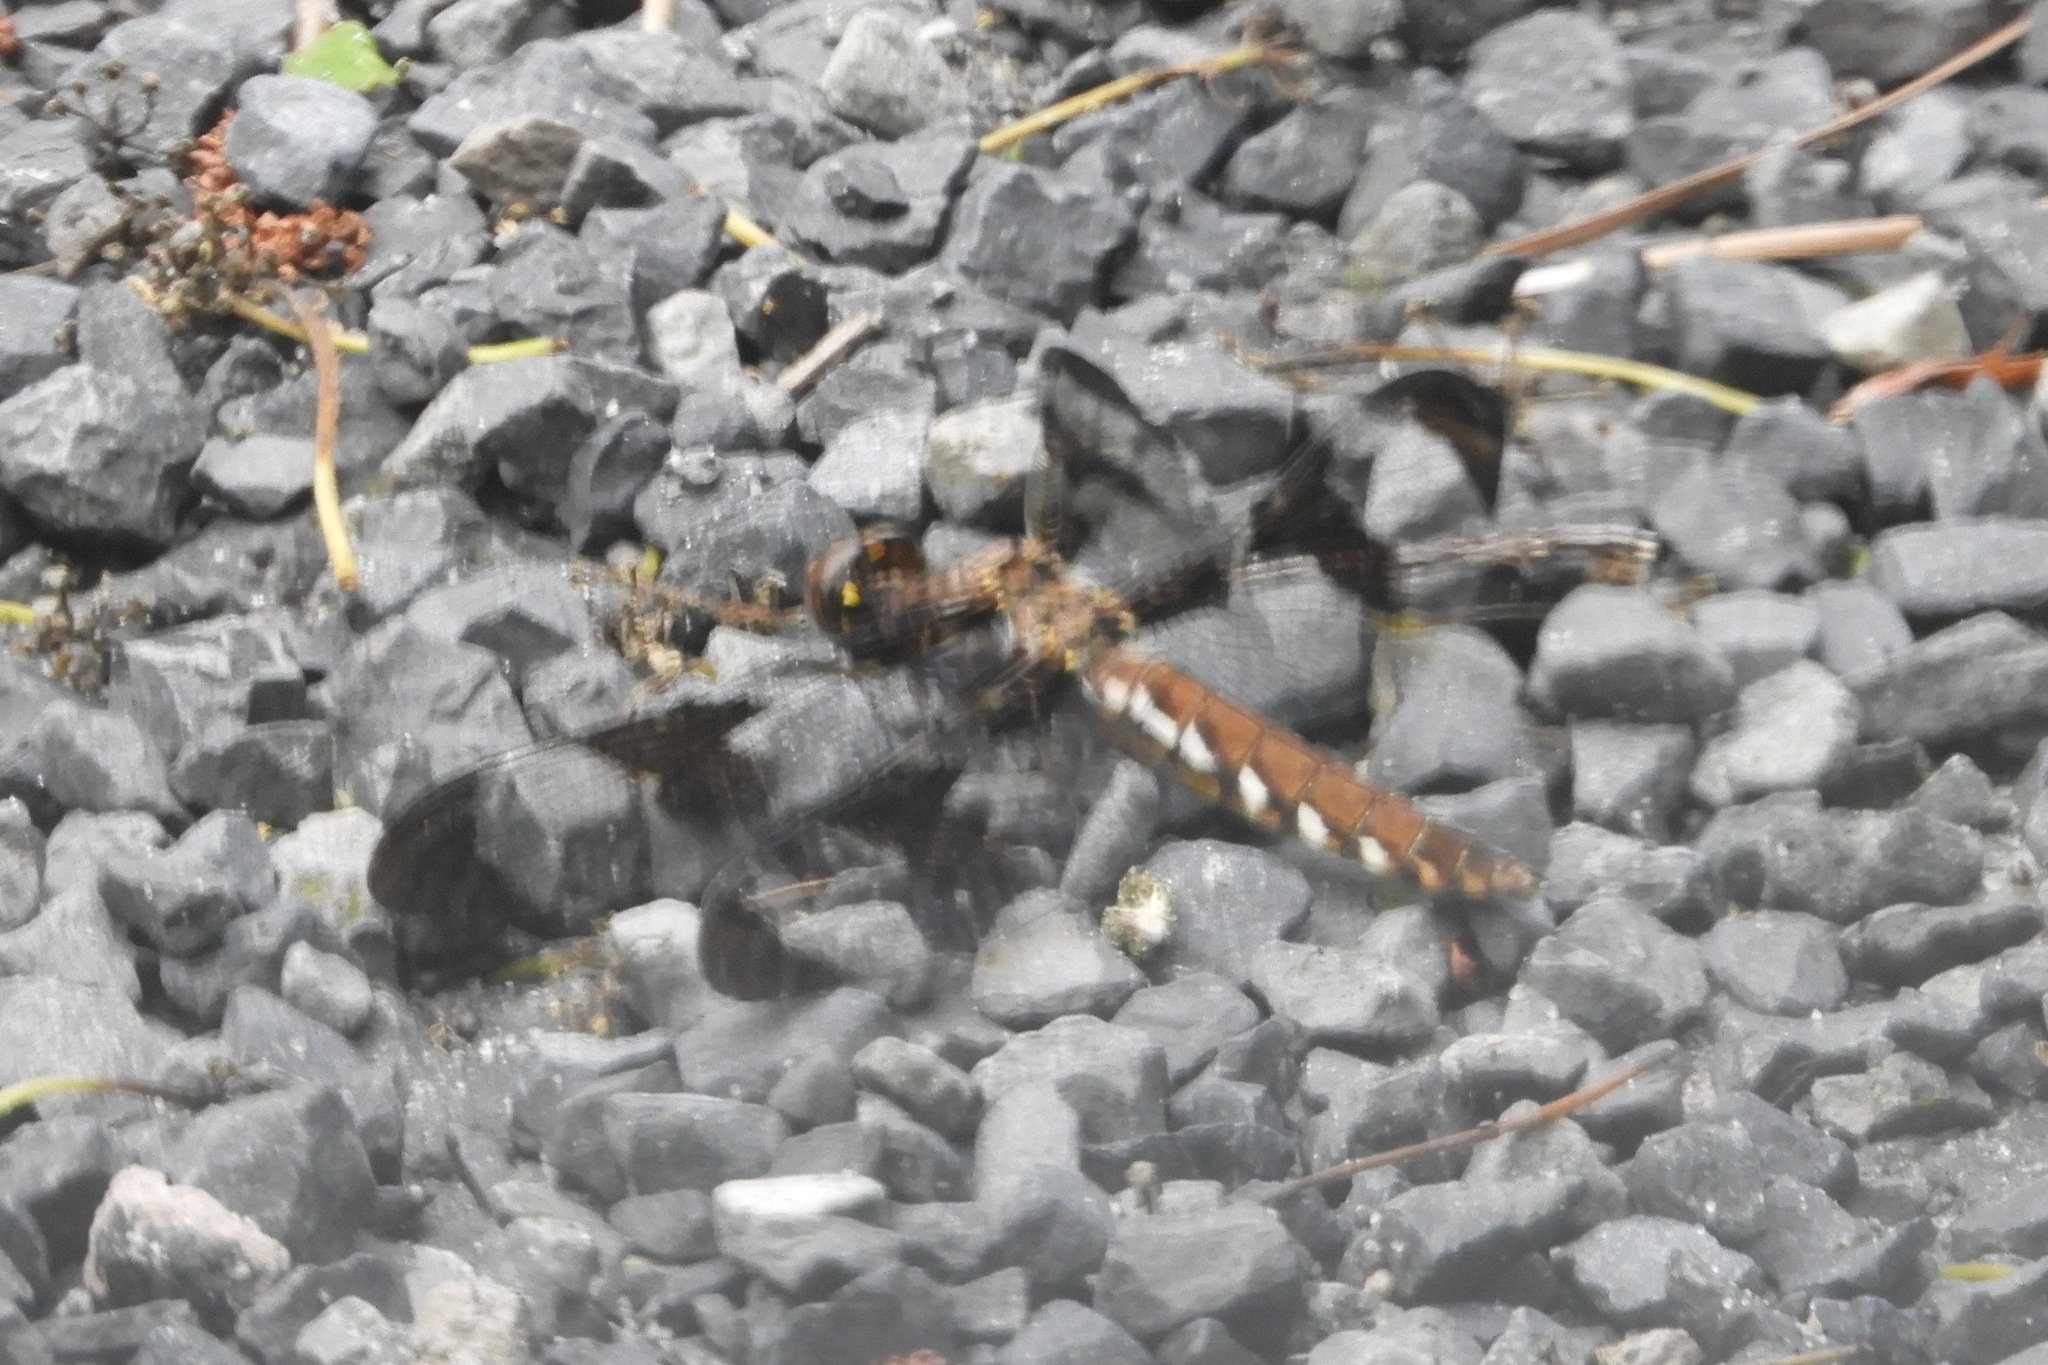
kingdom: Animalia
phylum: Arthropoda
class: Insecta
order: Odonata
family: Libellulidae
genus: Plathemis
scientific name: Plathemis lydia
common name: Common whitetail
